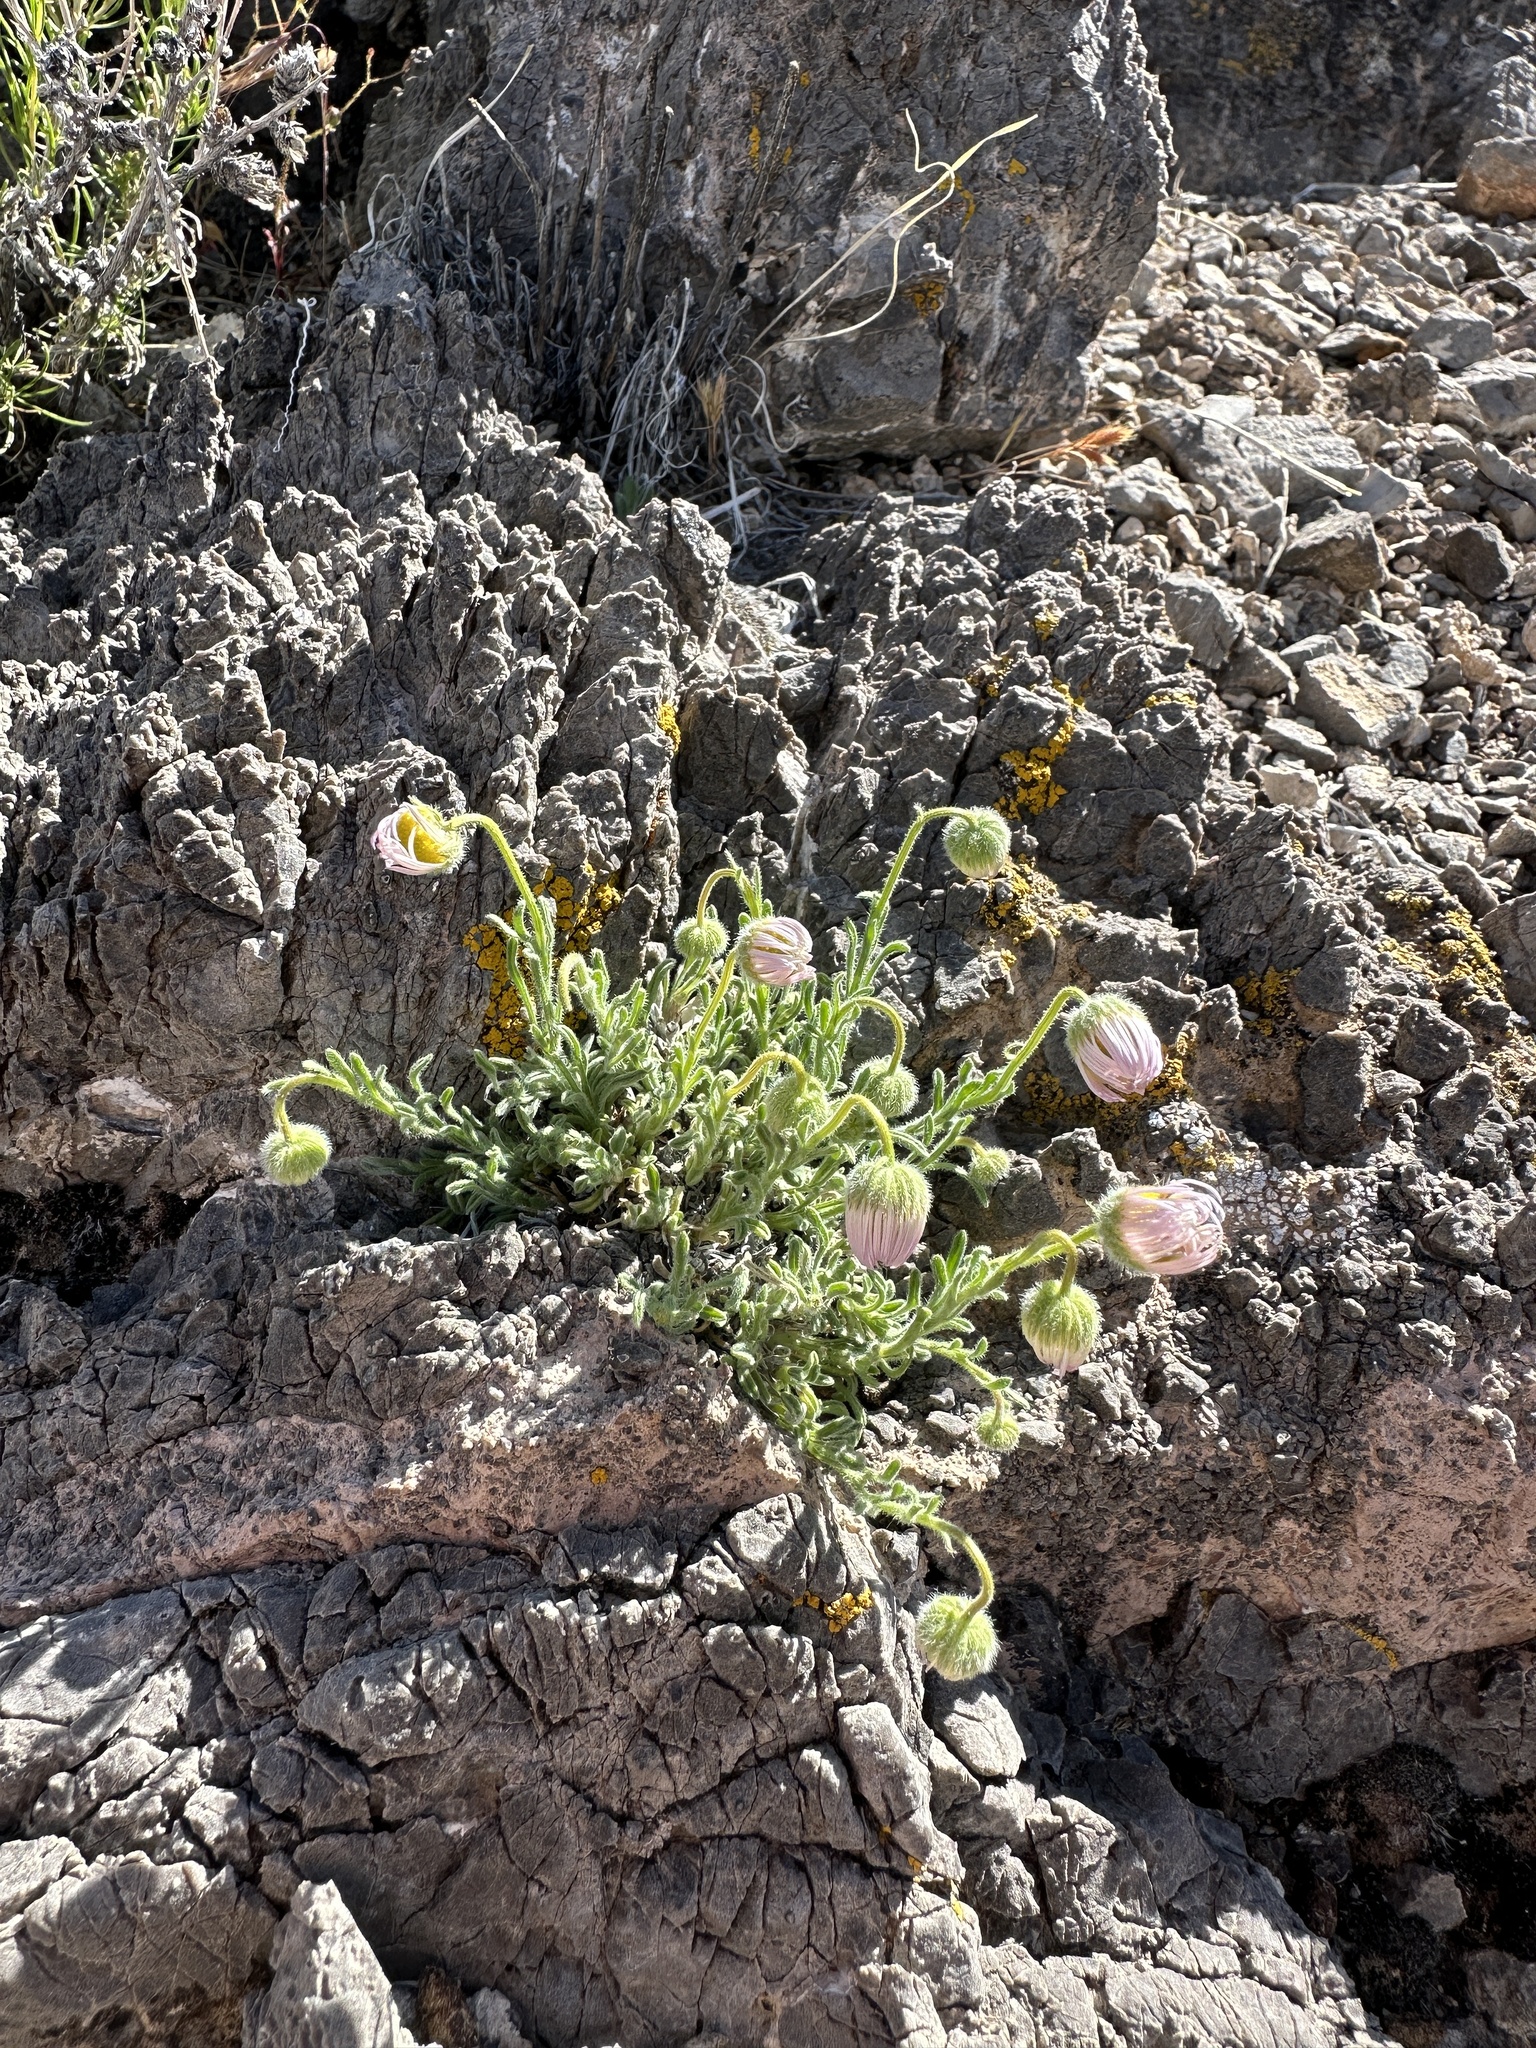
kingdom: Plantae
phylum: Tracheophyta
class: Magnoliopsida
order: Asterales
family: Asteraceae
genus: Erigeron
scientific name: Erigeron concinnus
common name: Navajo fleabane
